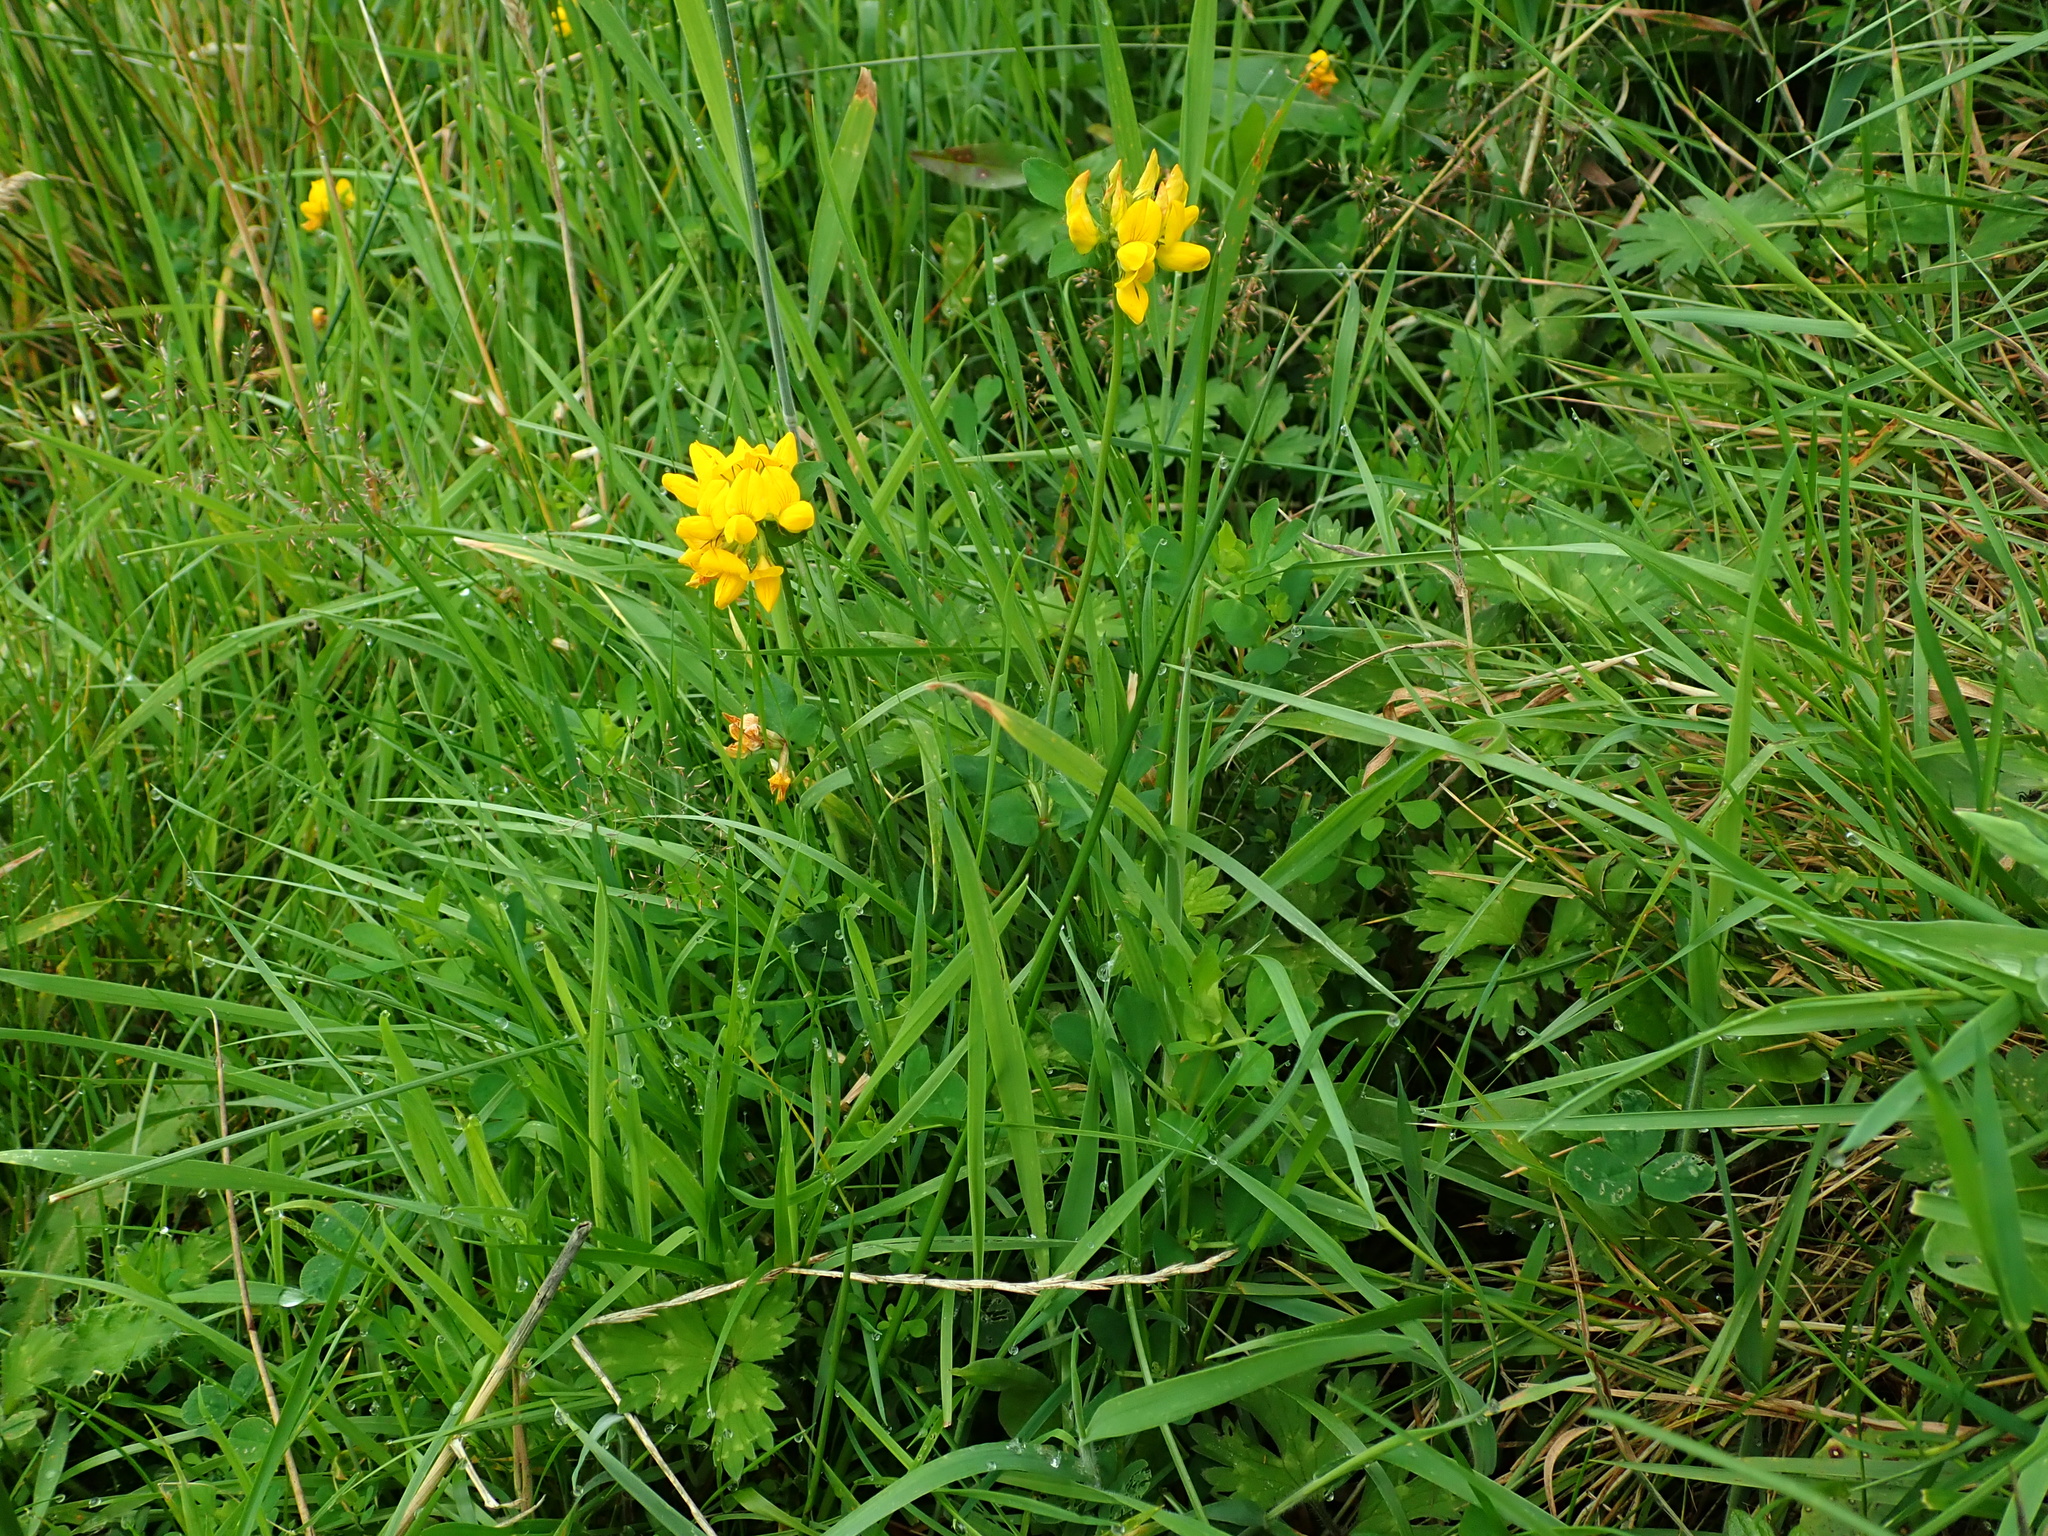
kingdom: Plantae
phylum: Tracheophyta
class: Magnoliopsida
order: Fabales
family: Fabaceae
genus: Lathyrus
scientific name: Lathyrus pratensis
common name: Meadow vetchling
